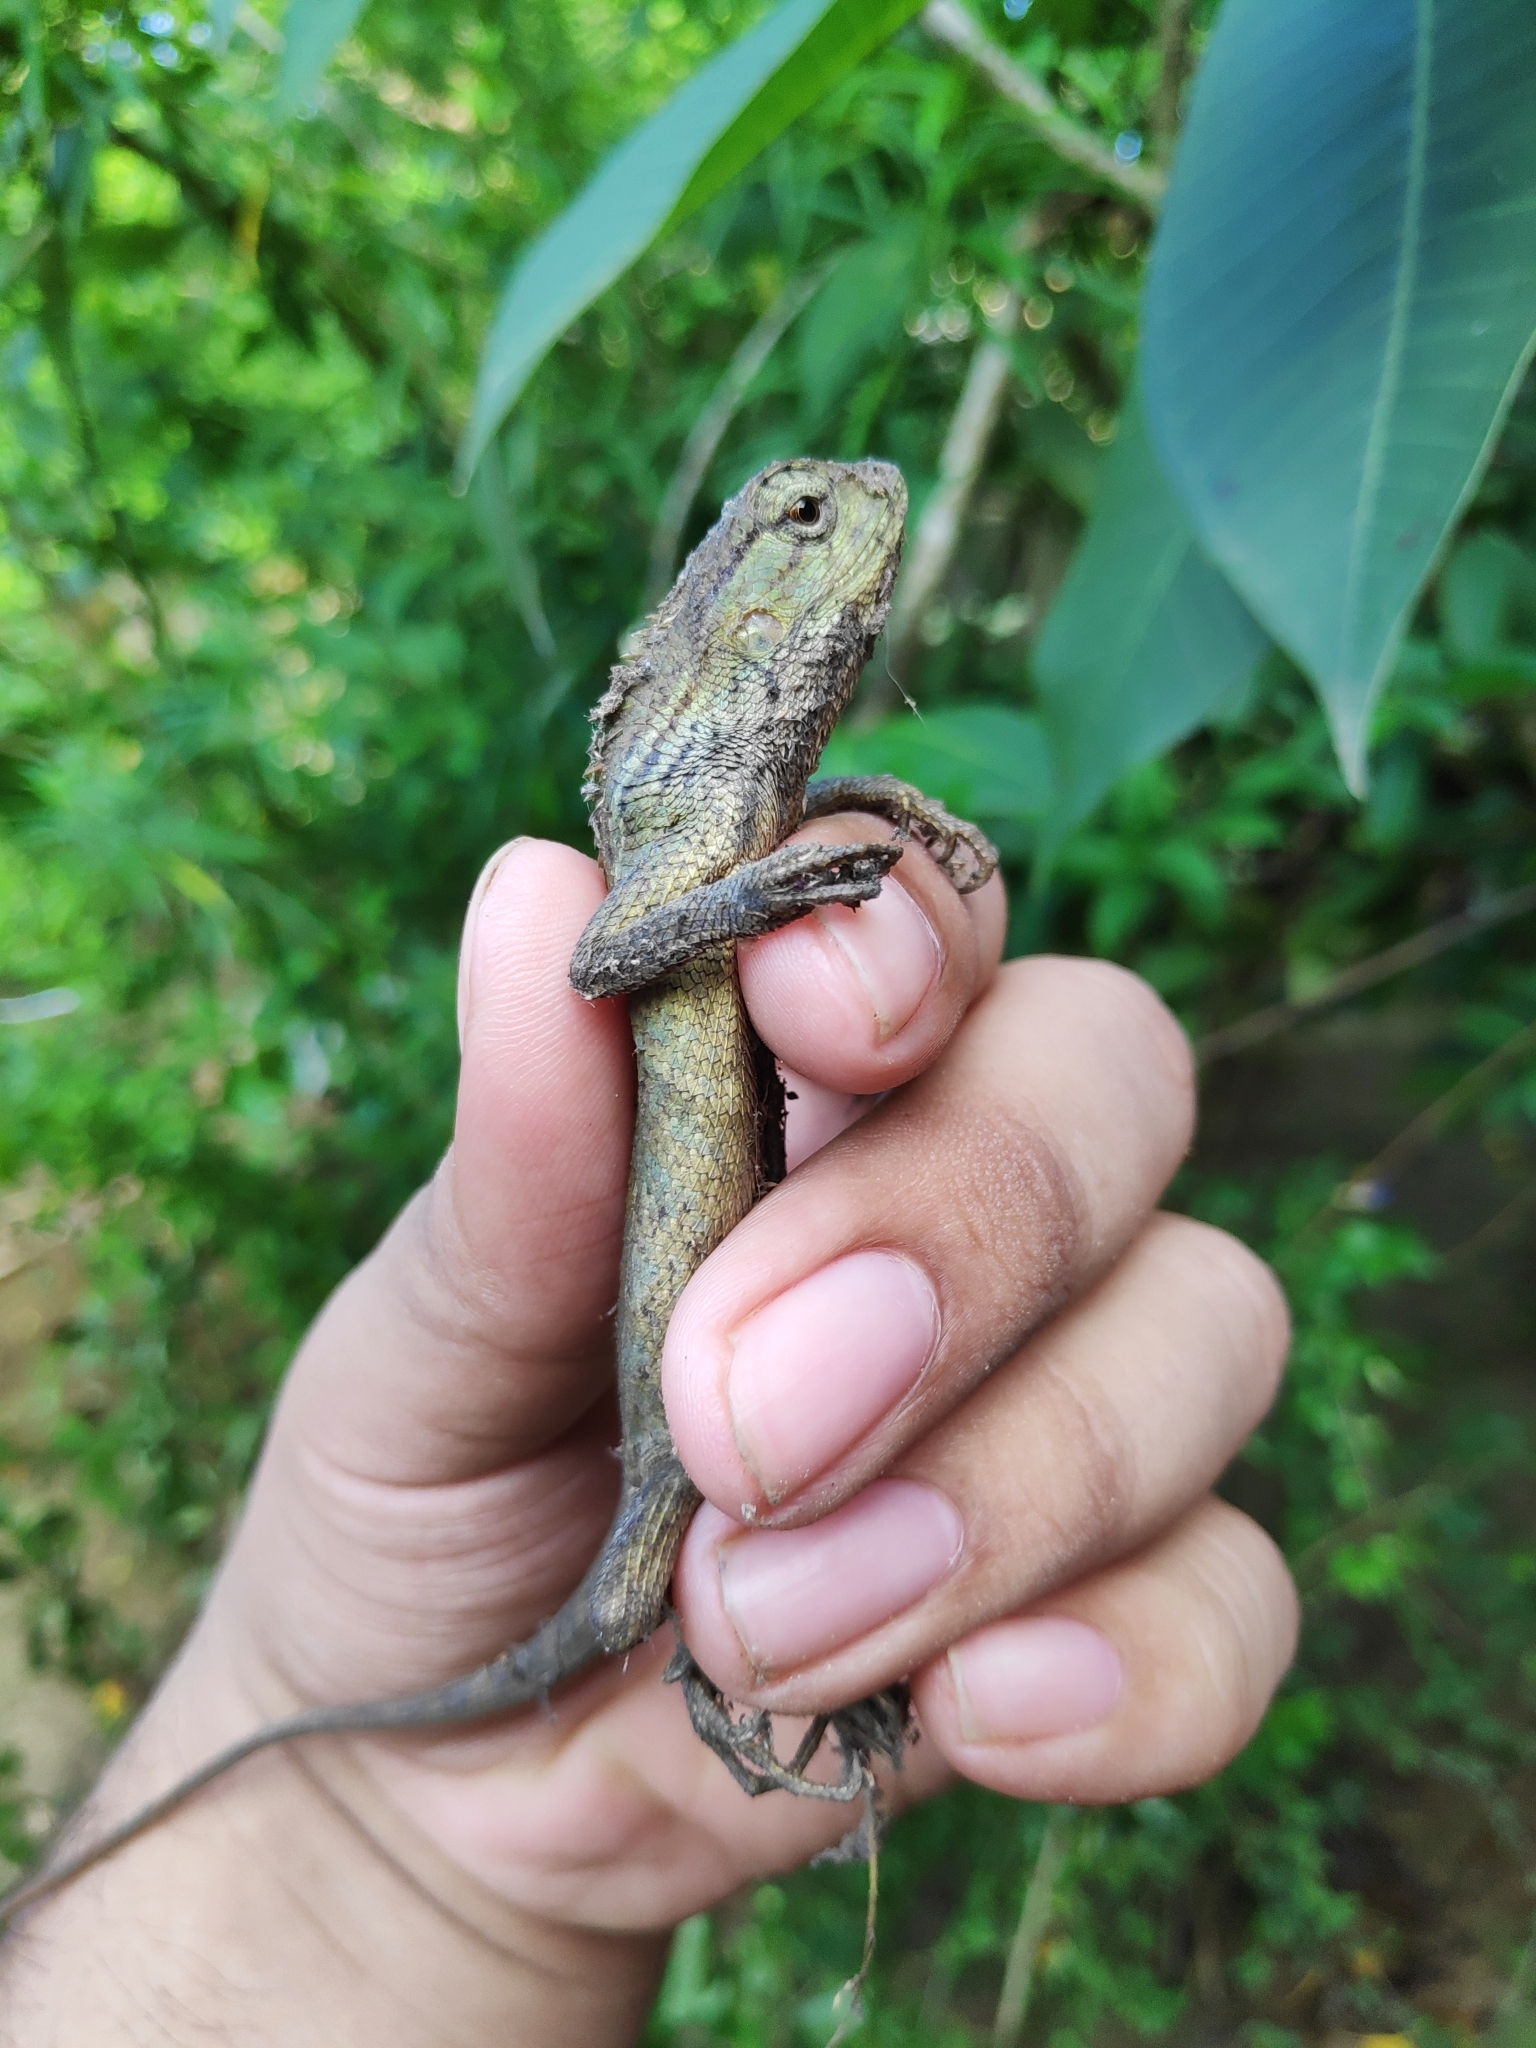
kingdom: Animalia
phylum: Chordata
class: Squamata
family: Agamidae
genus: Calotes
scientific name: Calotes jerdoni
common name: Jerdon's forest lizard
